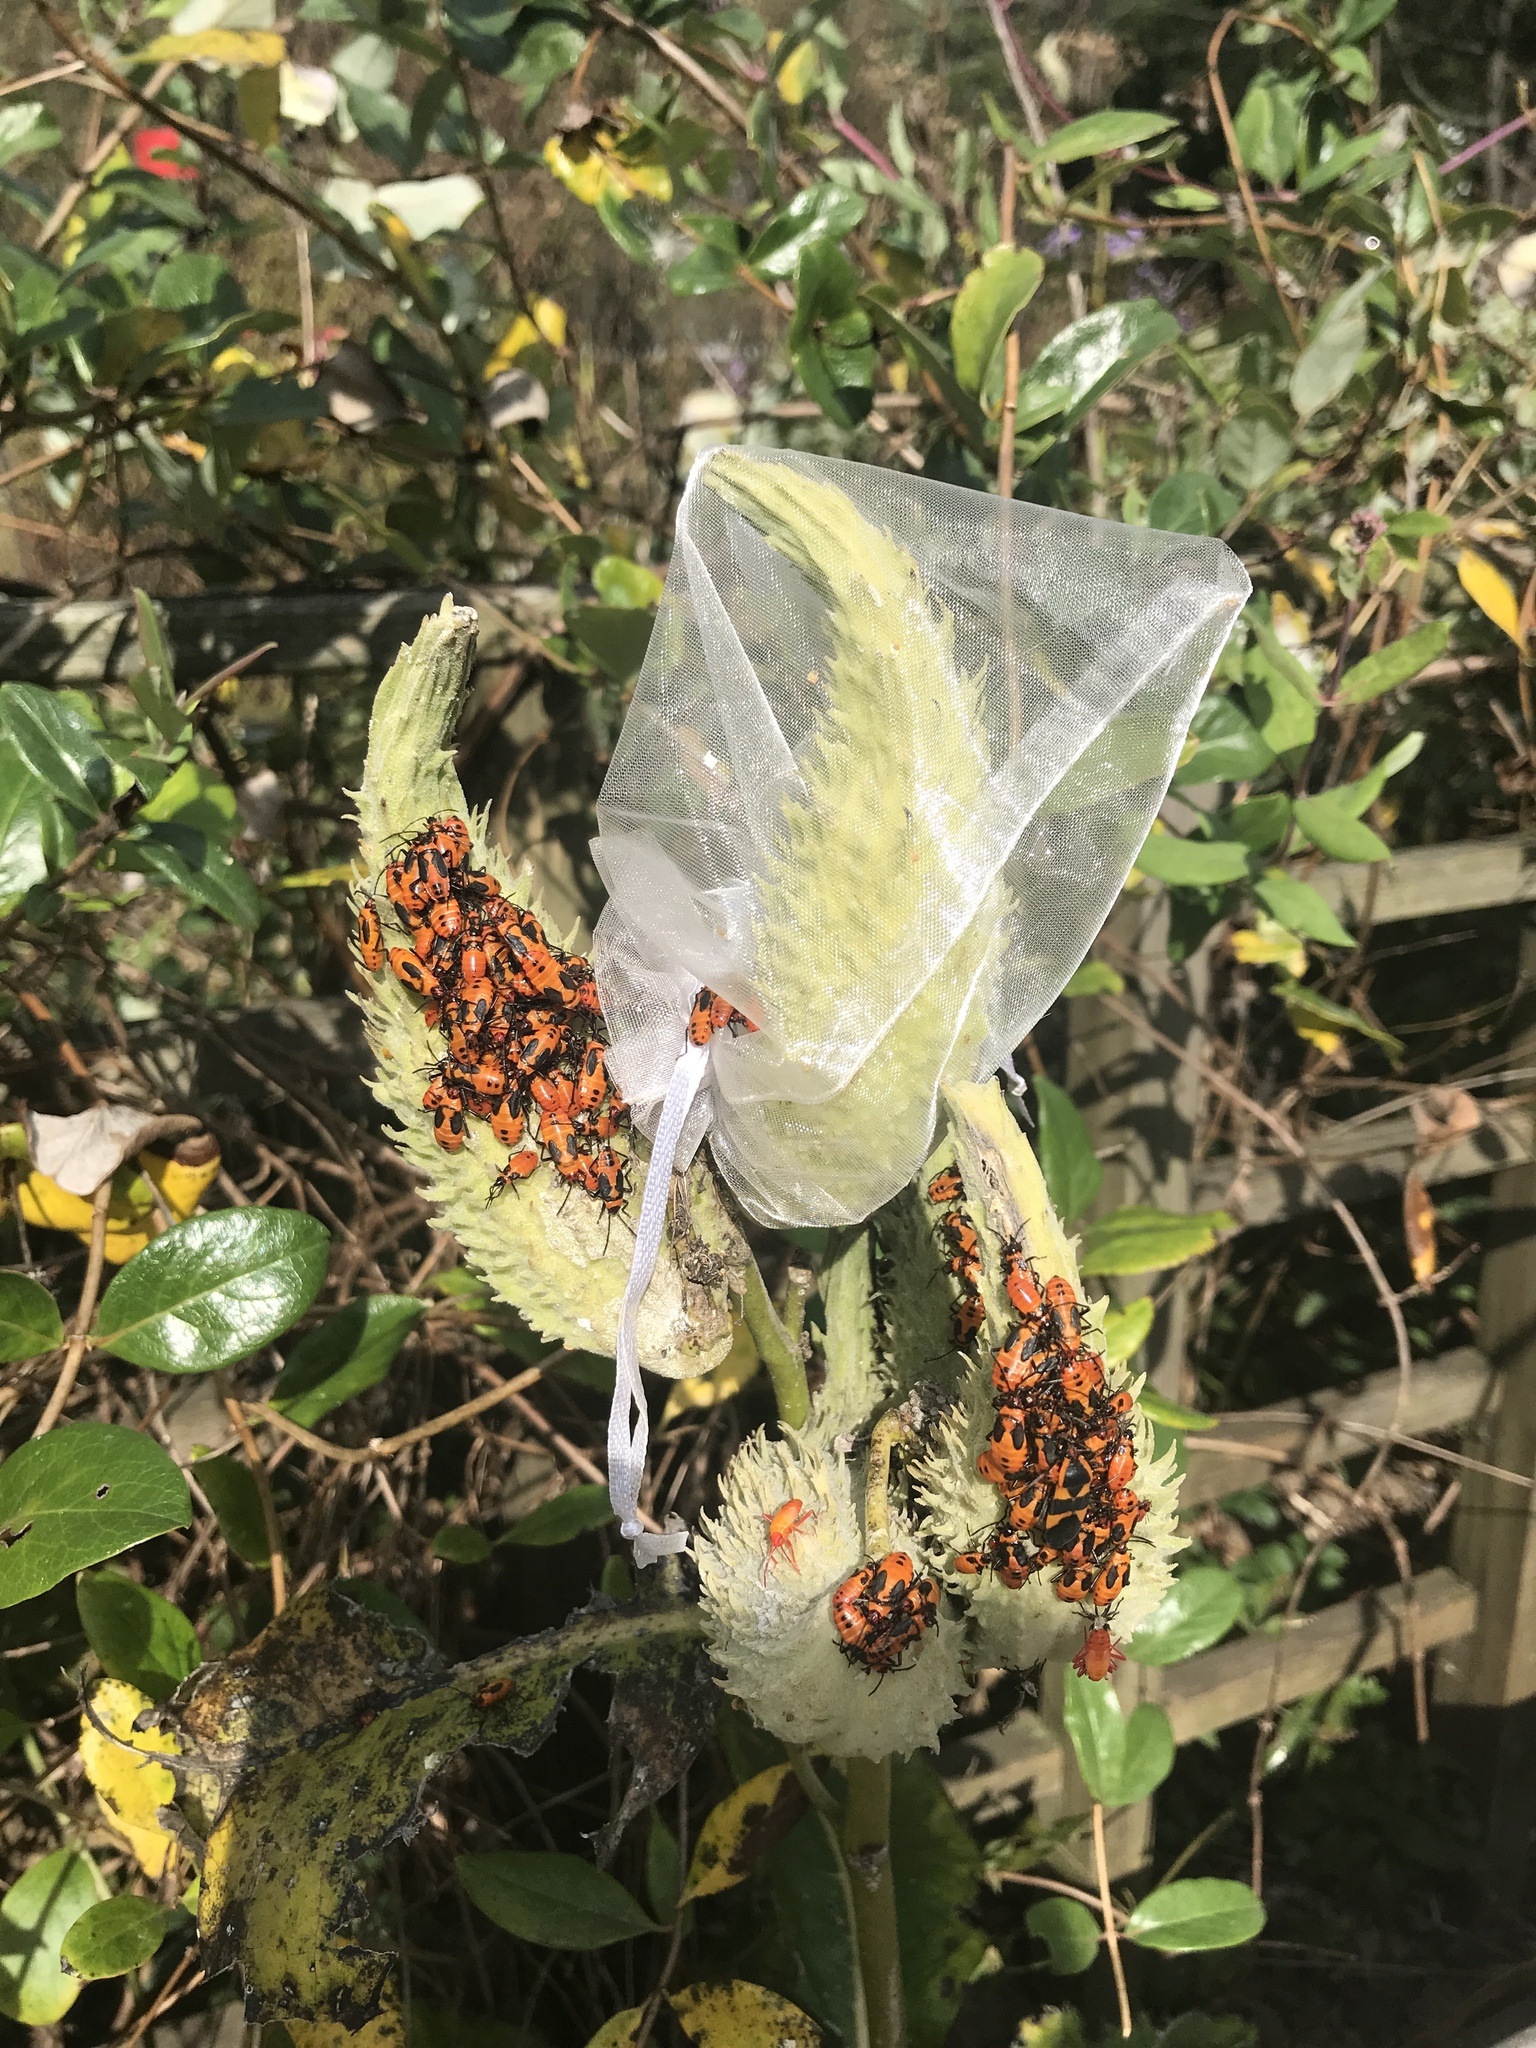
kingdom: Animalia
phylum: Arthropoda
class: Insecta
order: Hemiptera
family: Lygaeidae
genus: Oncopeltus
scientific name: Oncopeltus fasciatus
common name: Large milkweed bug
